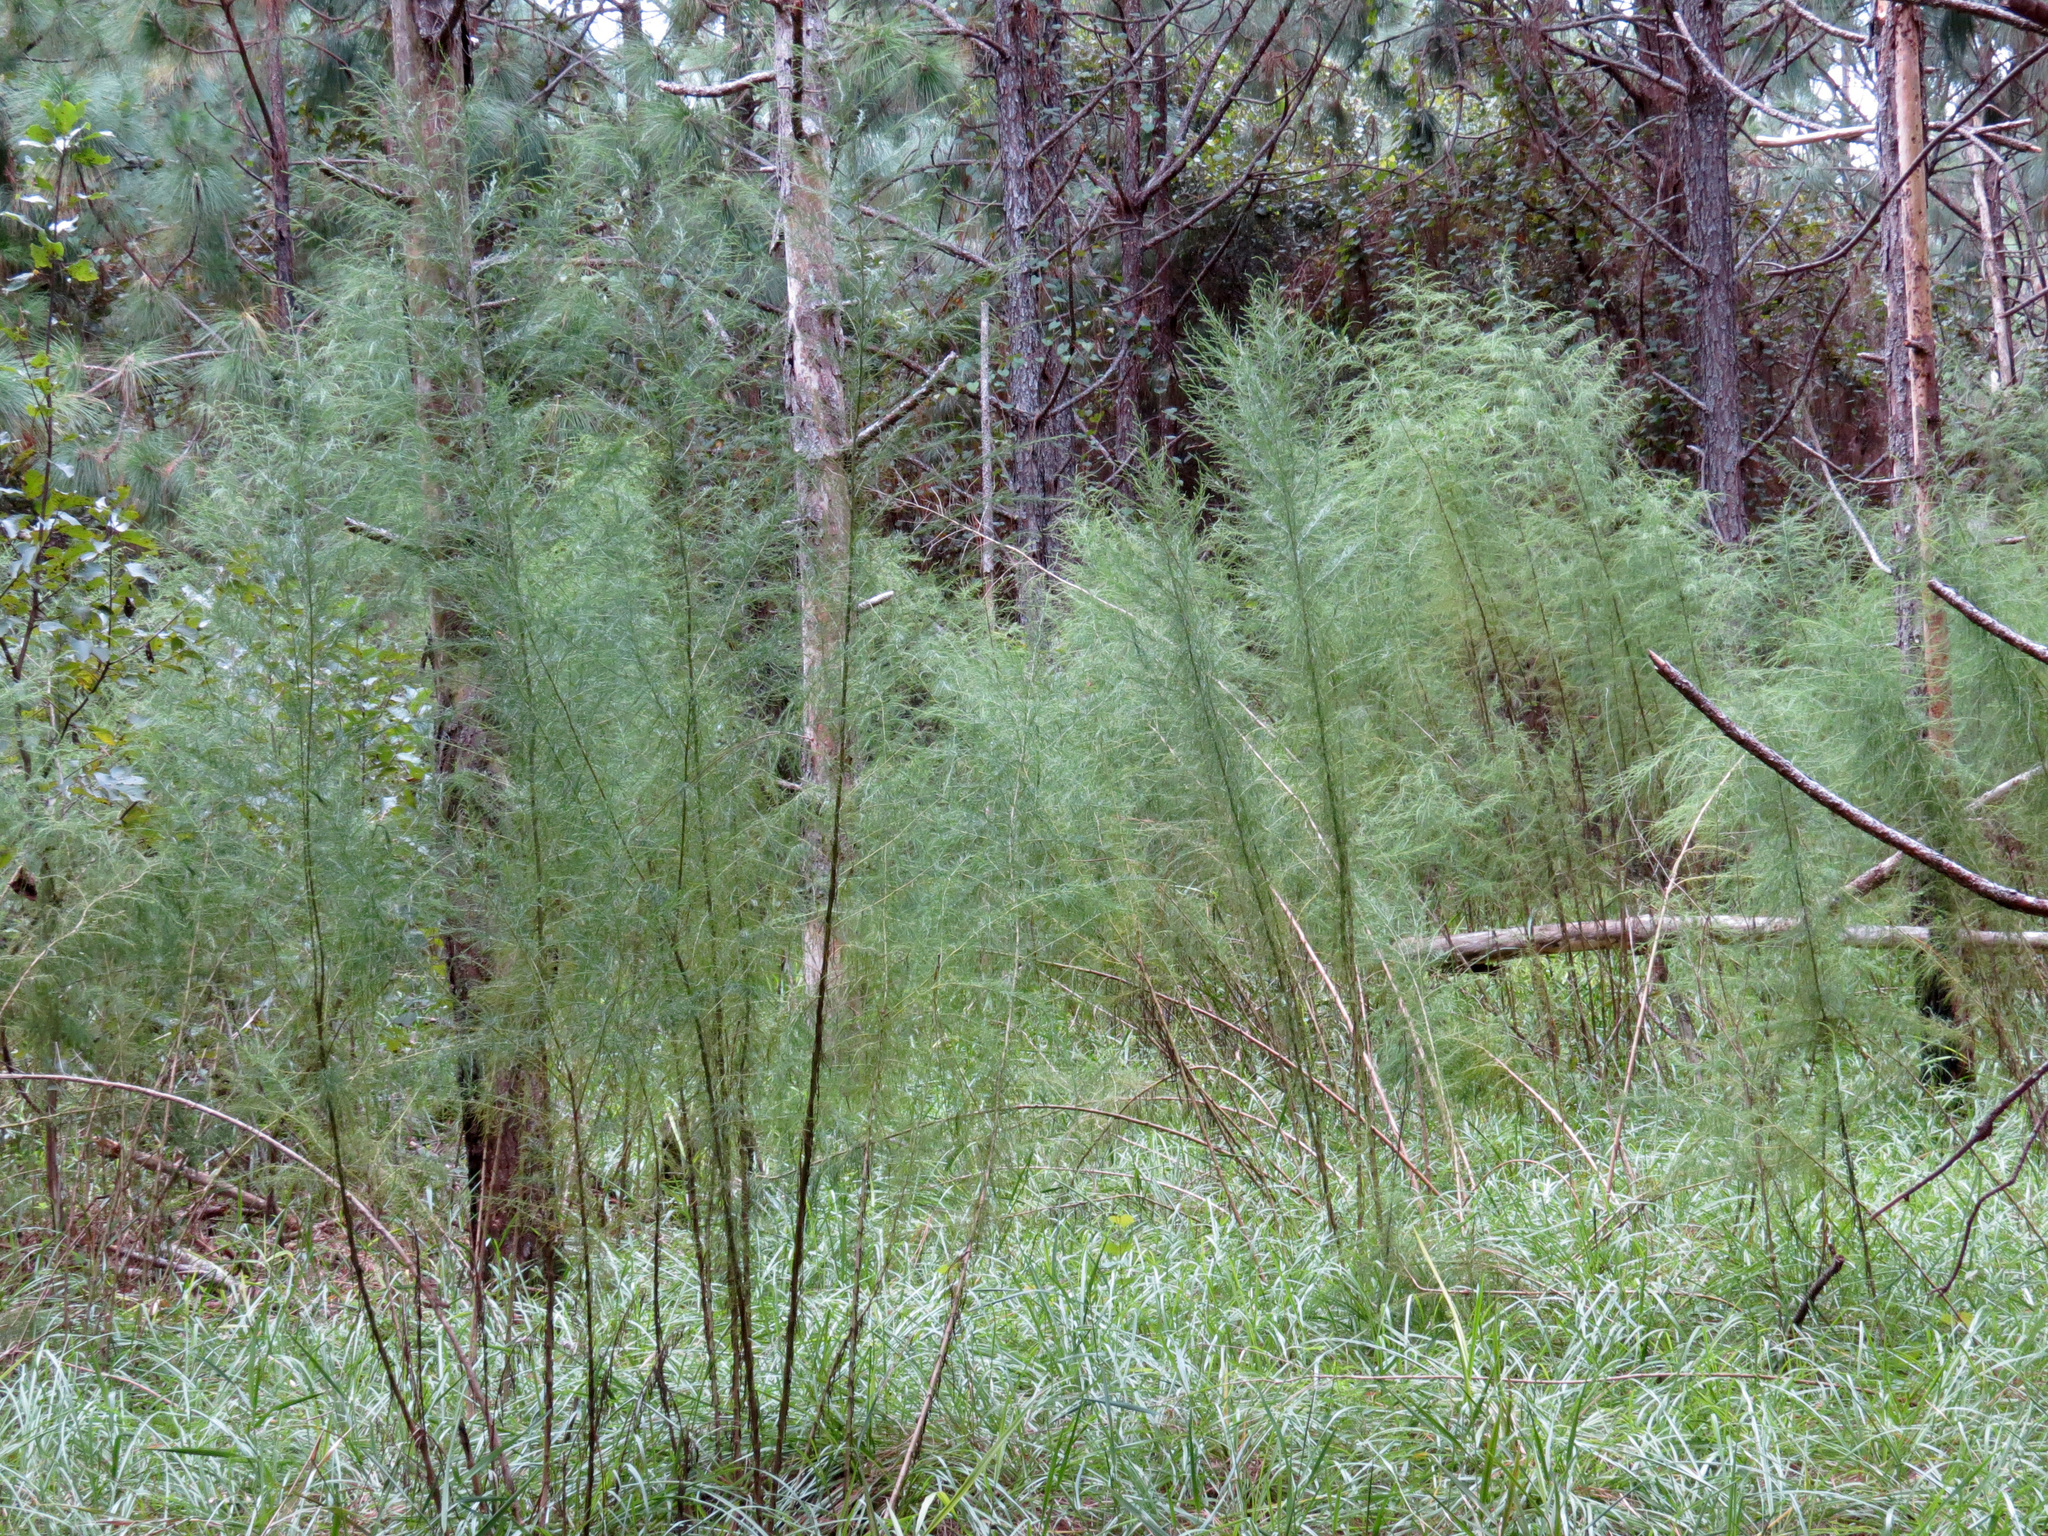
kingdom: Plantae
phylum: Tracheophyta
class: Magnoliopsida
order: Asterales
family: Asteraceae
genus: Eupatorium
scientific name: Eupatorium capillifolium
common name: Dog-fennel
